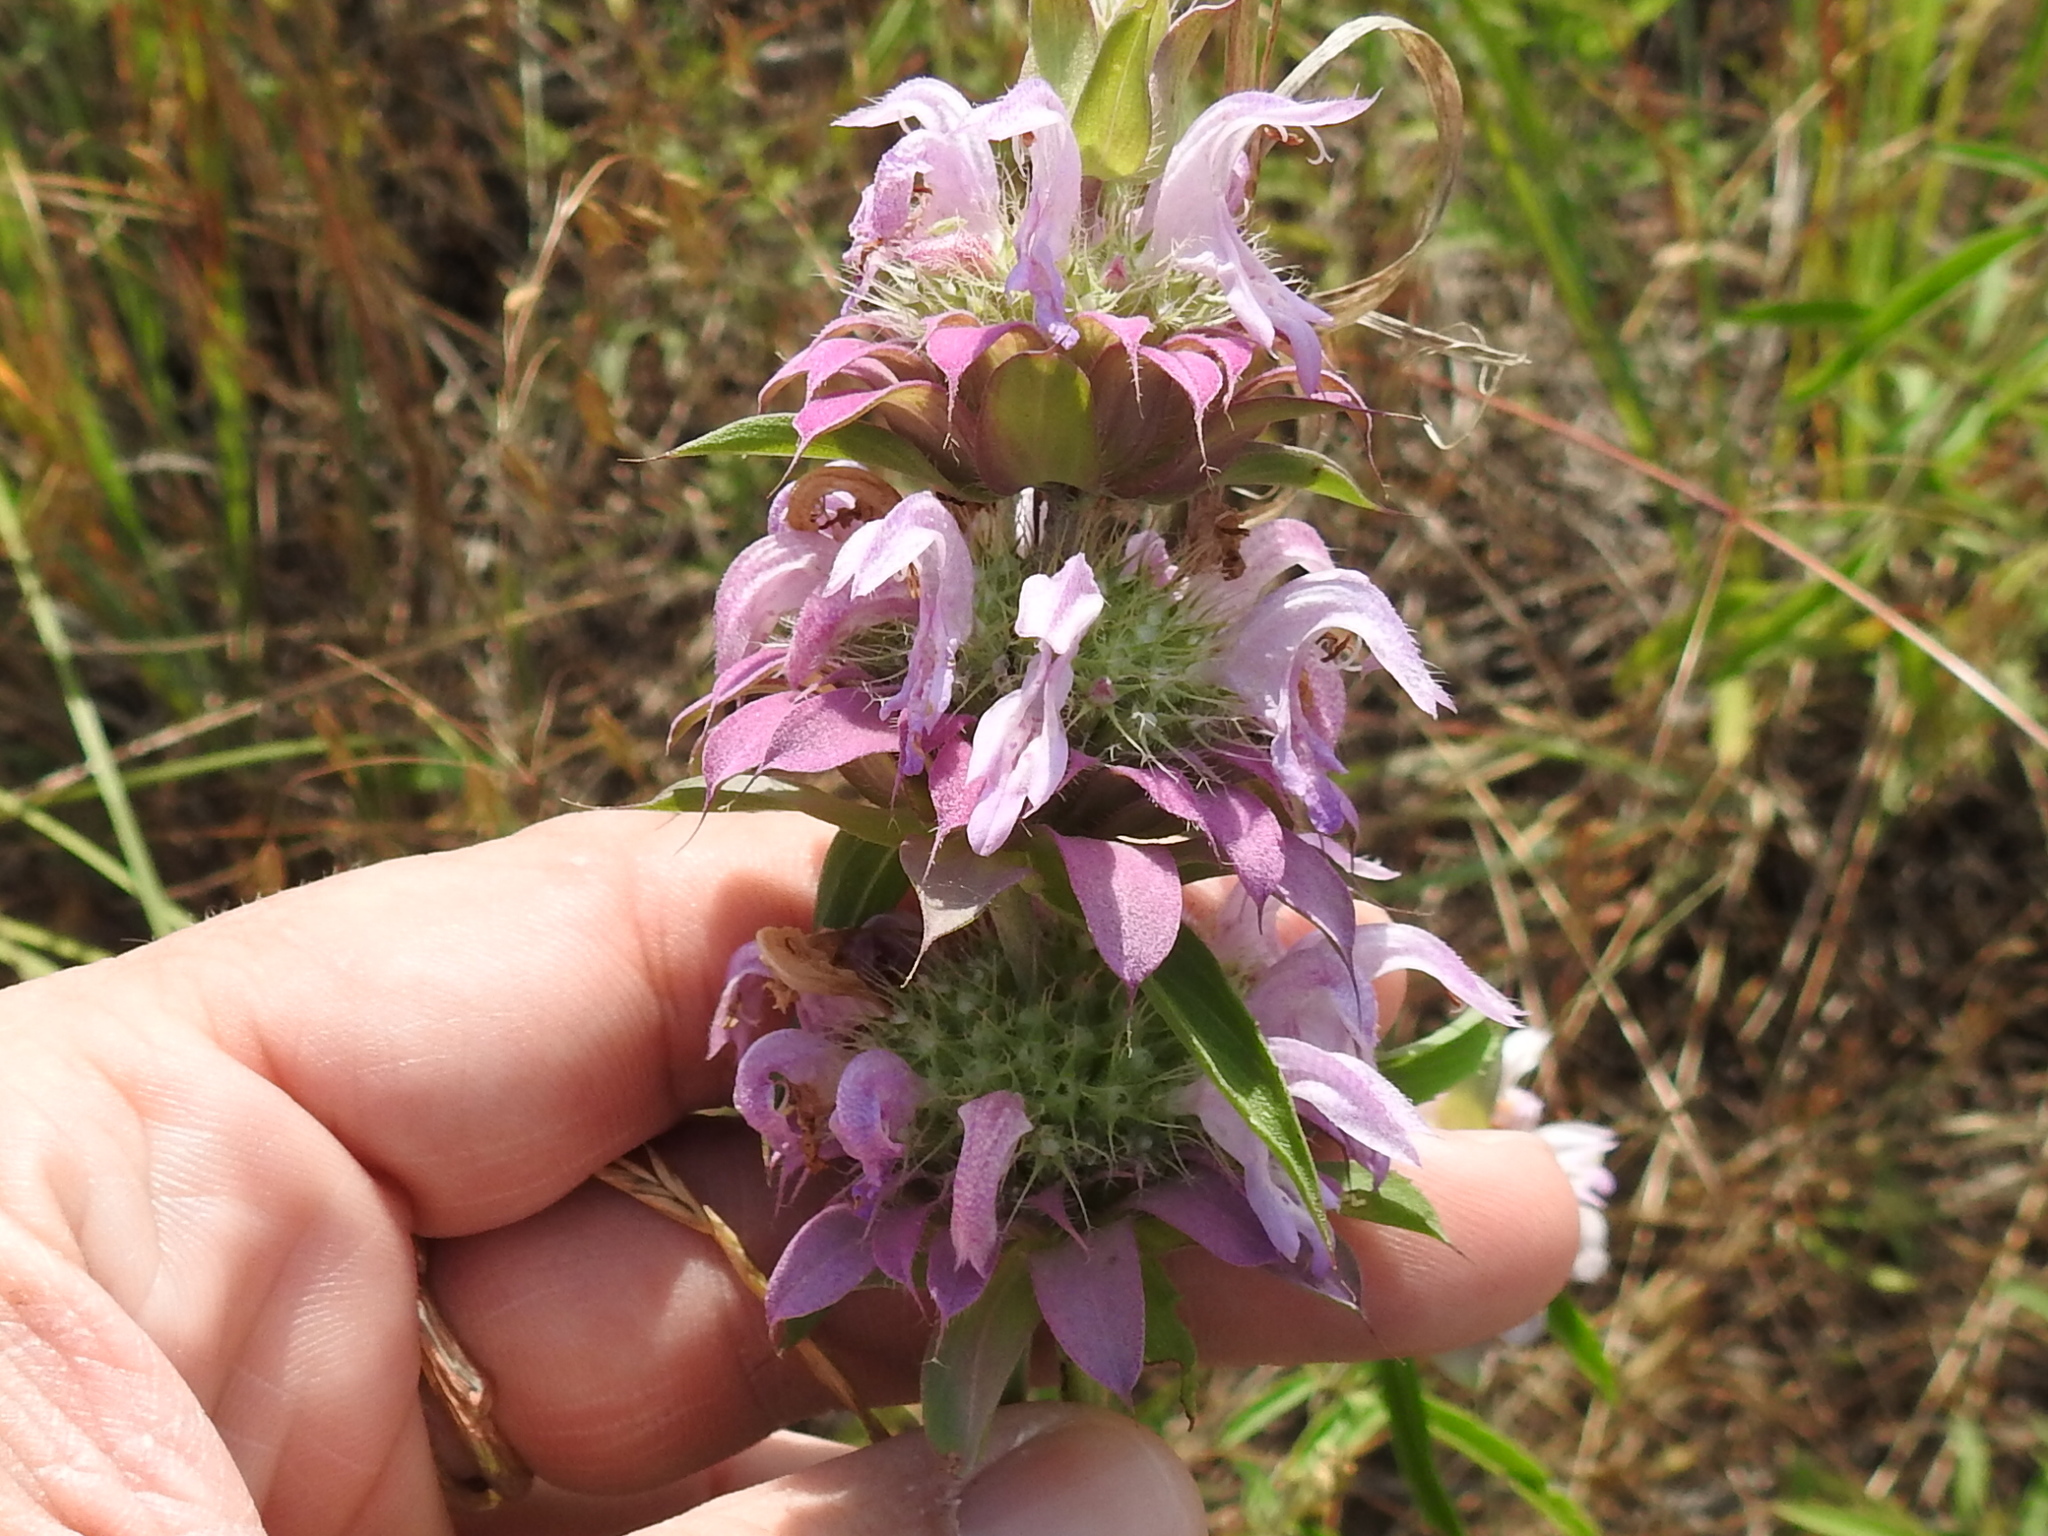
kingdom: Plantae
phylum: Tracheophyta
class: Magnoliopsida
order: Lamiales
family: Lamiaceae
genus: Monarda
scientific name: Monarda citriodora
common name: Lemon beebalm
